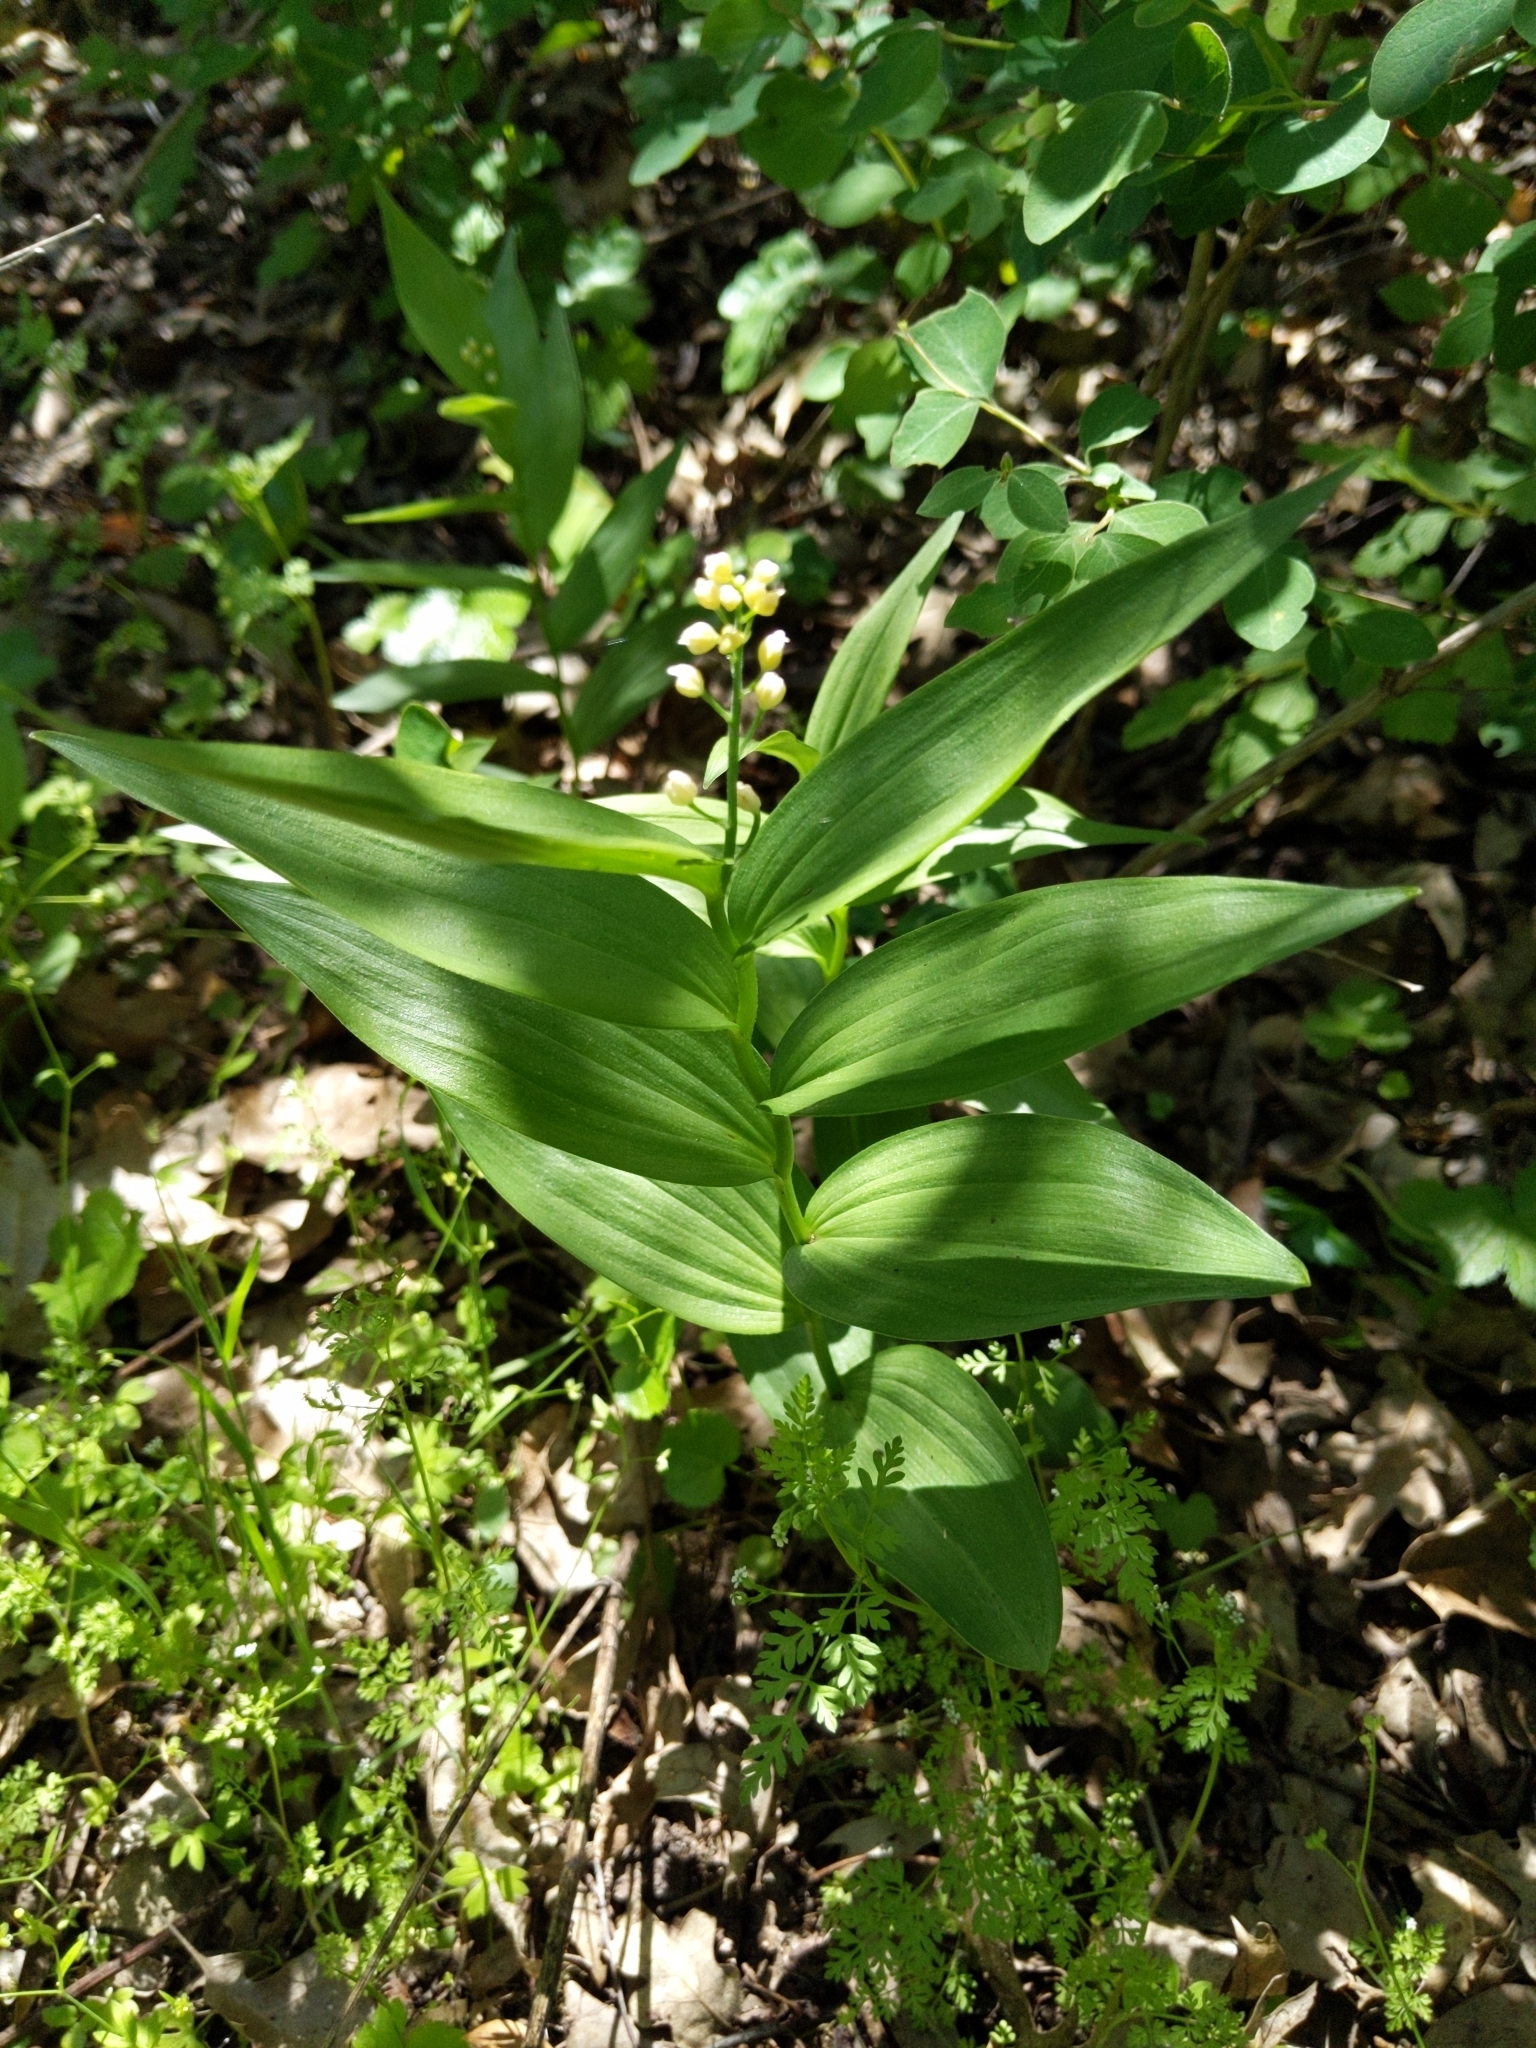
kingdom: Plantae
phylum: Tracheophyta
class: Liliopsida
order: Asparagales
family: Asparagaceae
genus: Maianthemum
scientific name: Maianthemum stellatum
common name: Little false solomon's seal
